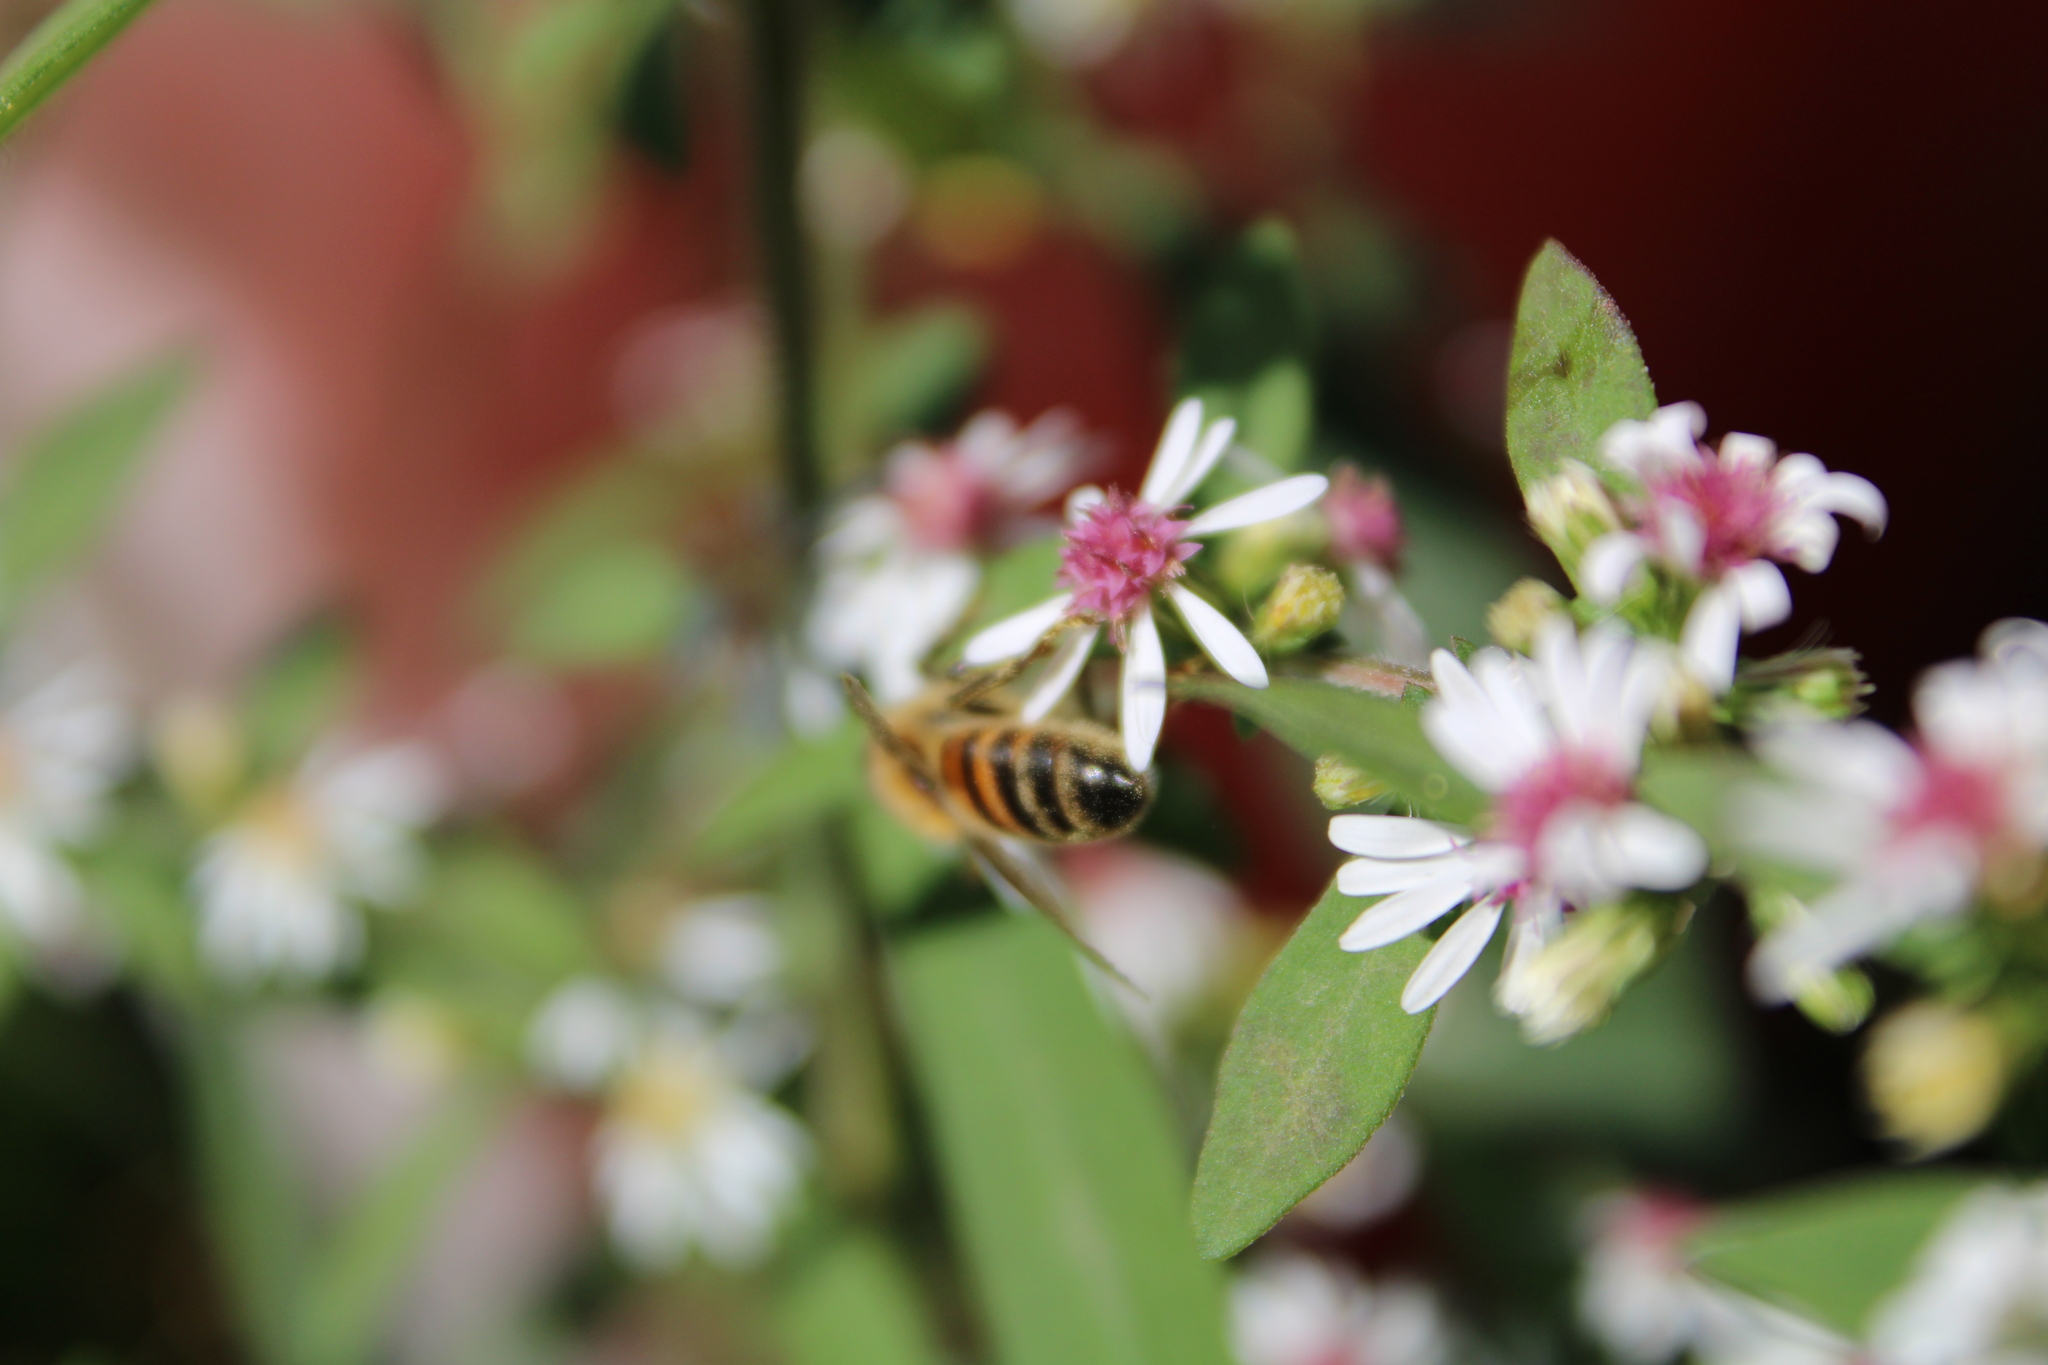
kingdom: Animalia
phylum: Arthropoda
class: Insecta
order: Hymenoptera
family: Apidae
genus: Apis
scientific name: Apis mellifera
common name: Honey bee
